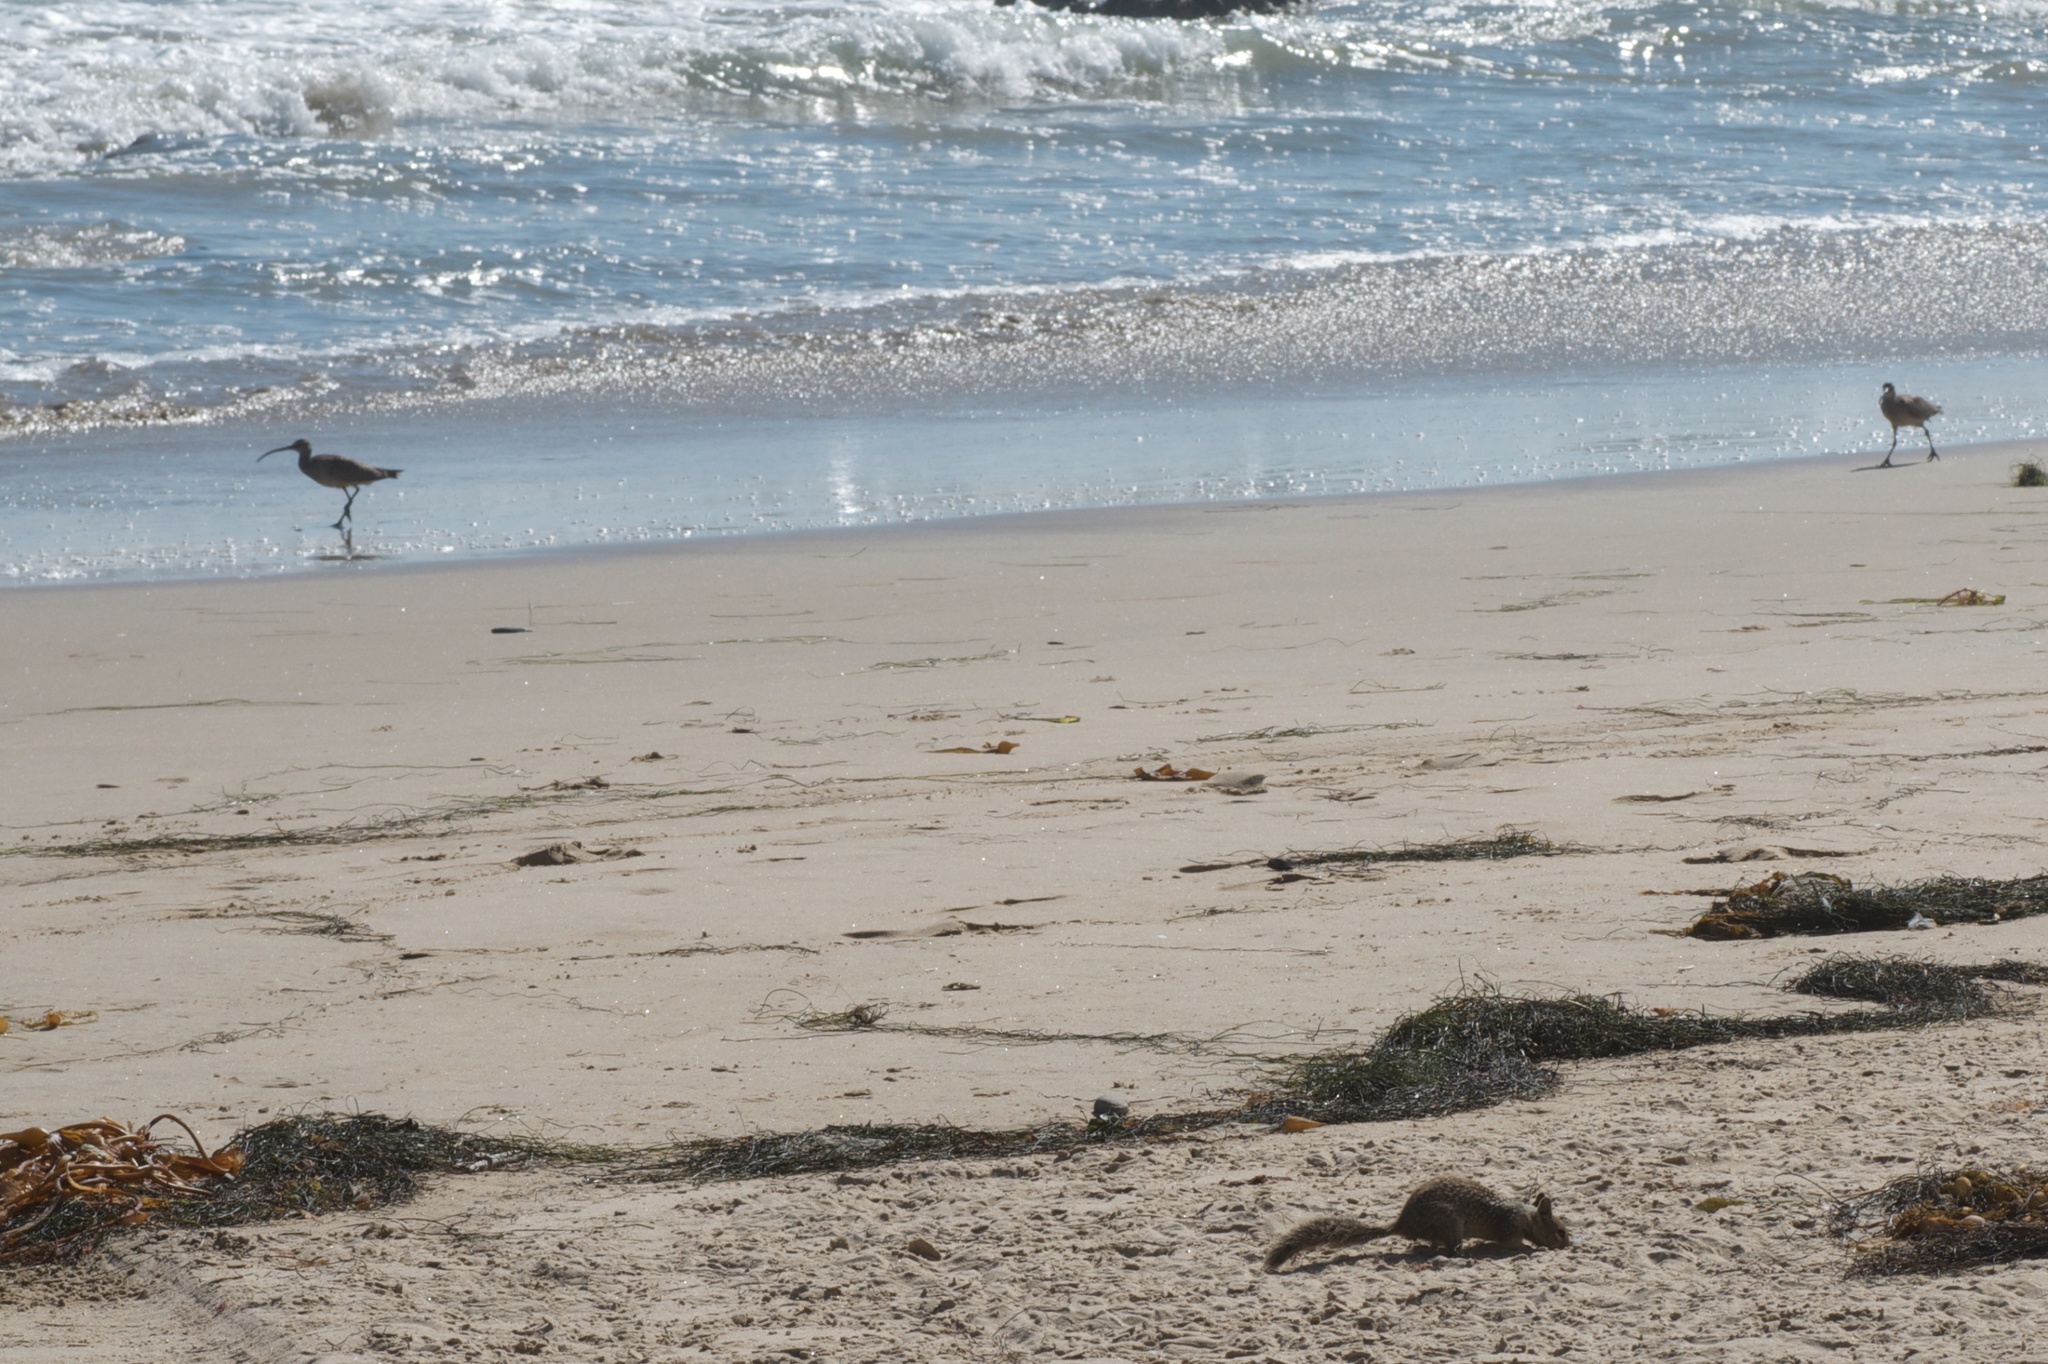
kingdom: Animalia
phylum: Chordata
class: Aves
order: Charadriiformes
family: Scolopacidae
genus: Numenius
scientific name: Numenius phaeopus
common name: Whimbrel
